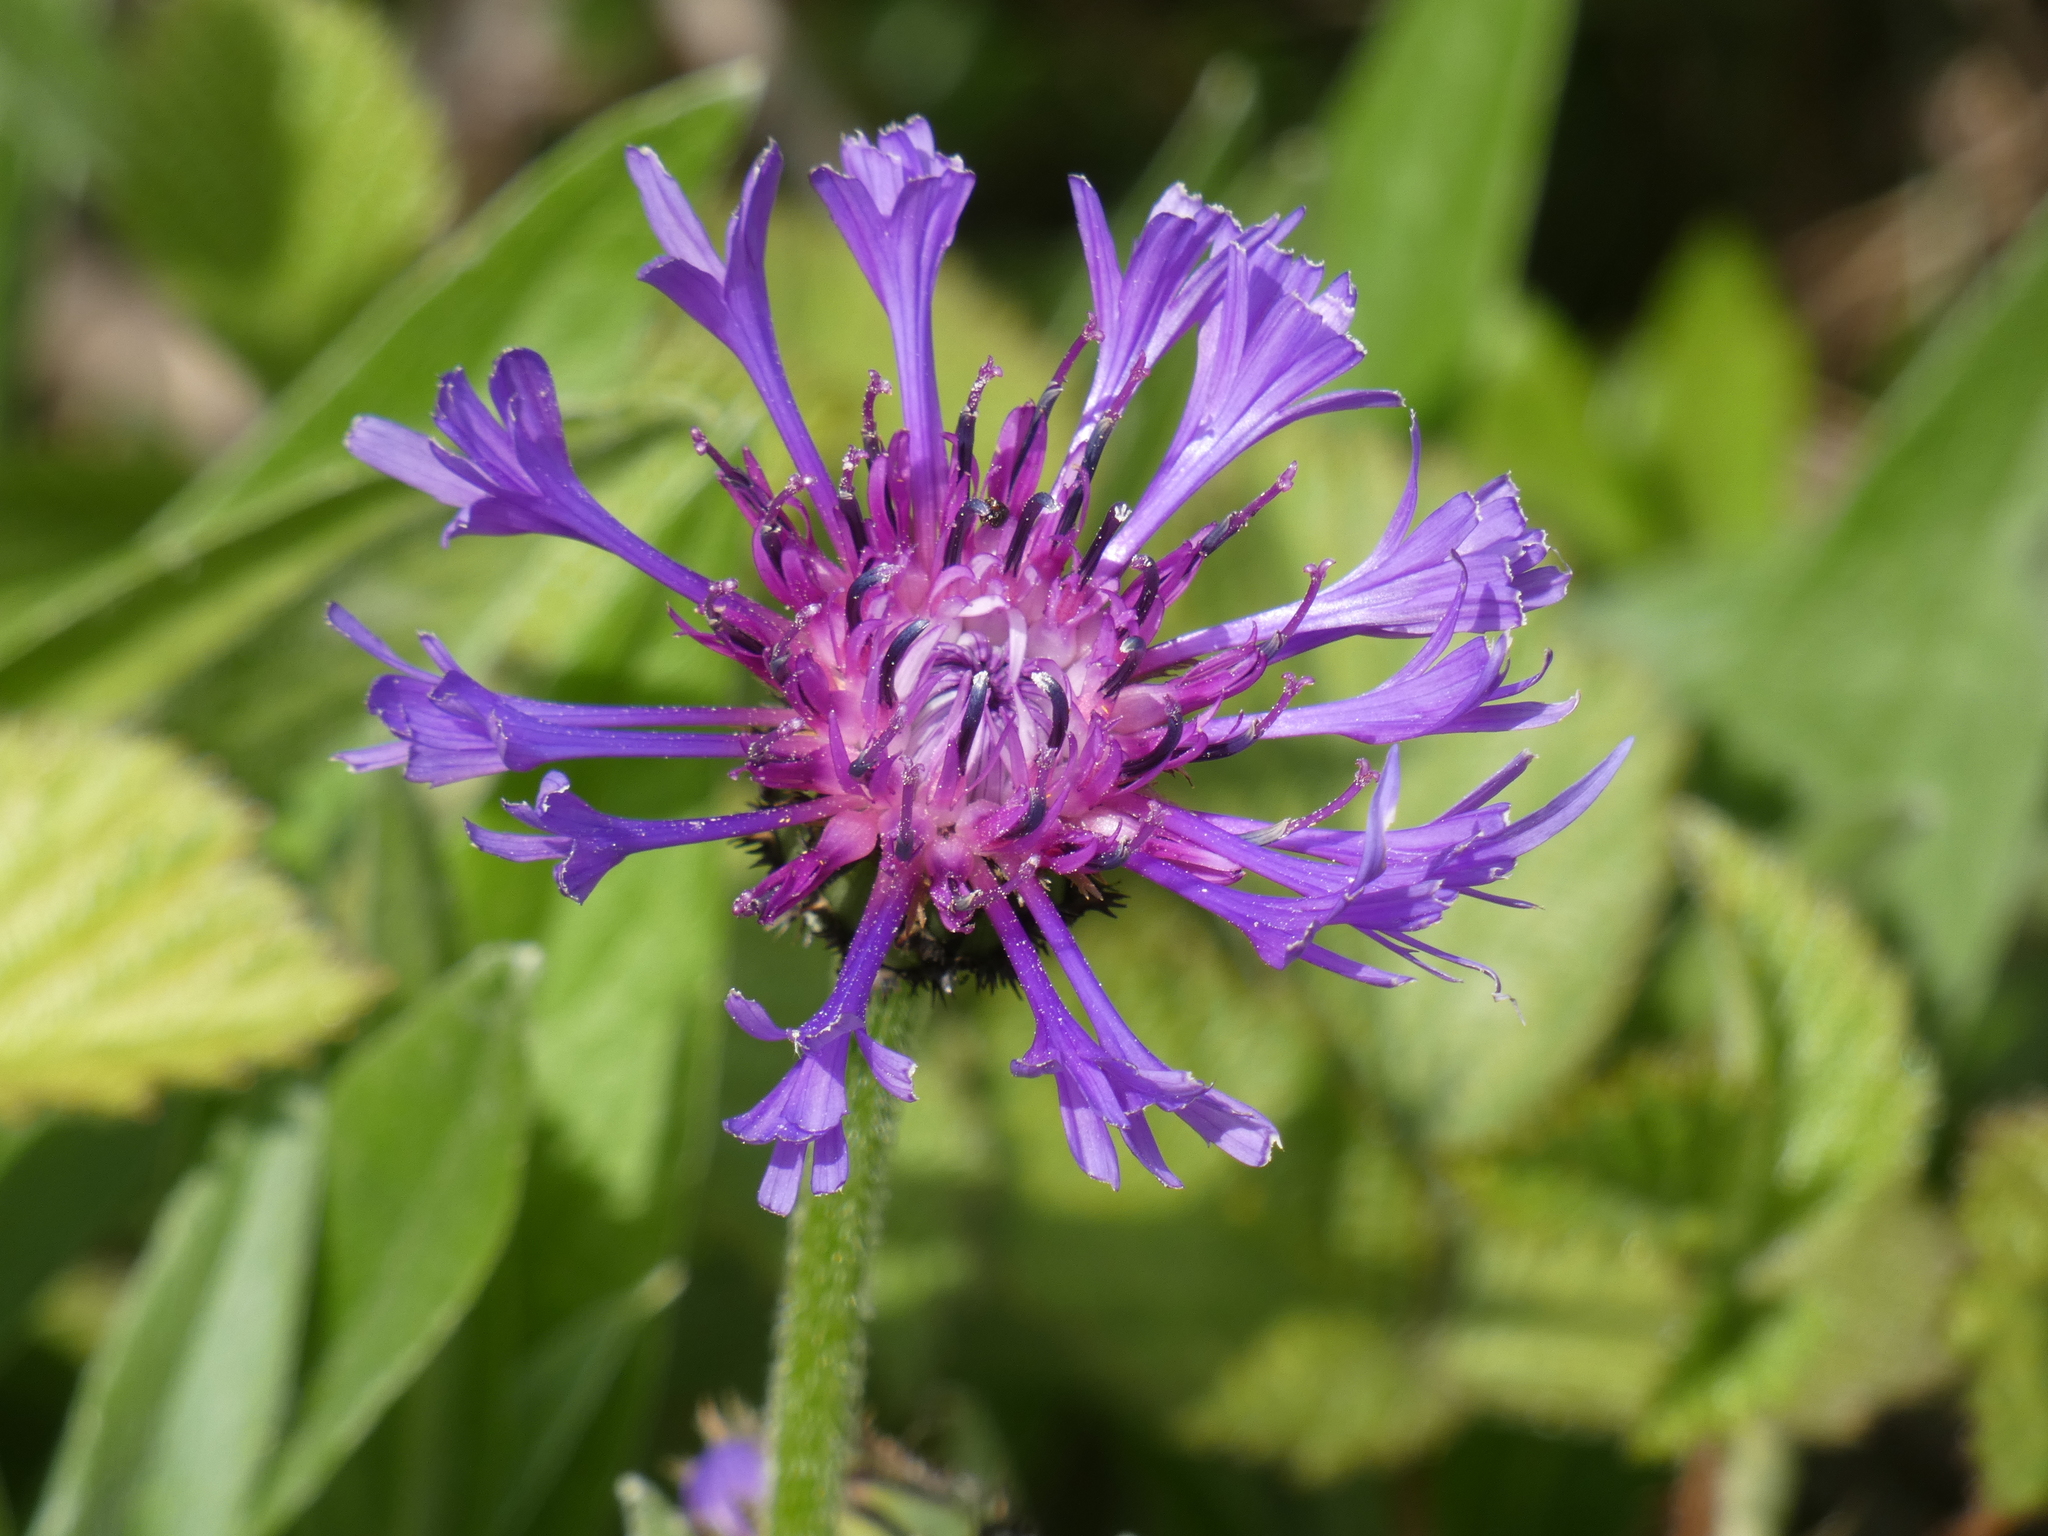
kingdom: Plantae
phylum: Tracheophyta
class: Magnoliopsida
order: Asterales
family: Asteraceae
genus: Centaurea
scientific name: Centaurea montana
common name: Perennial cornflower
